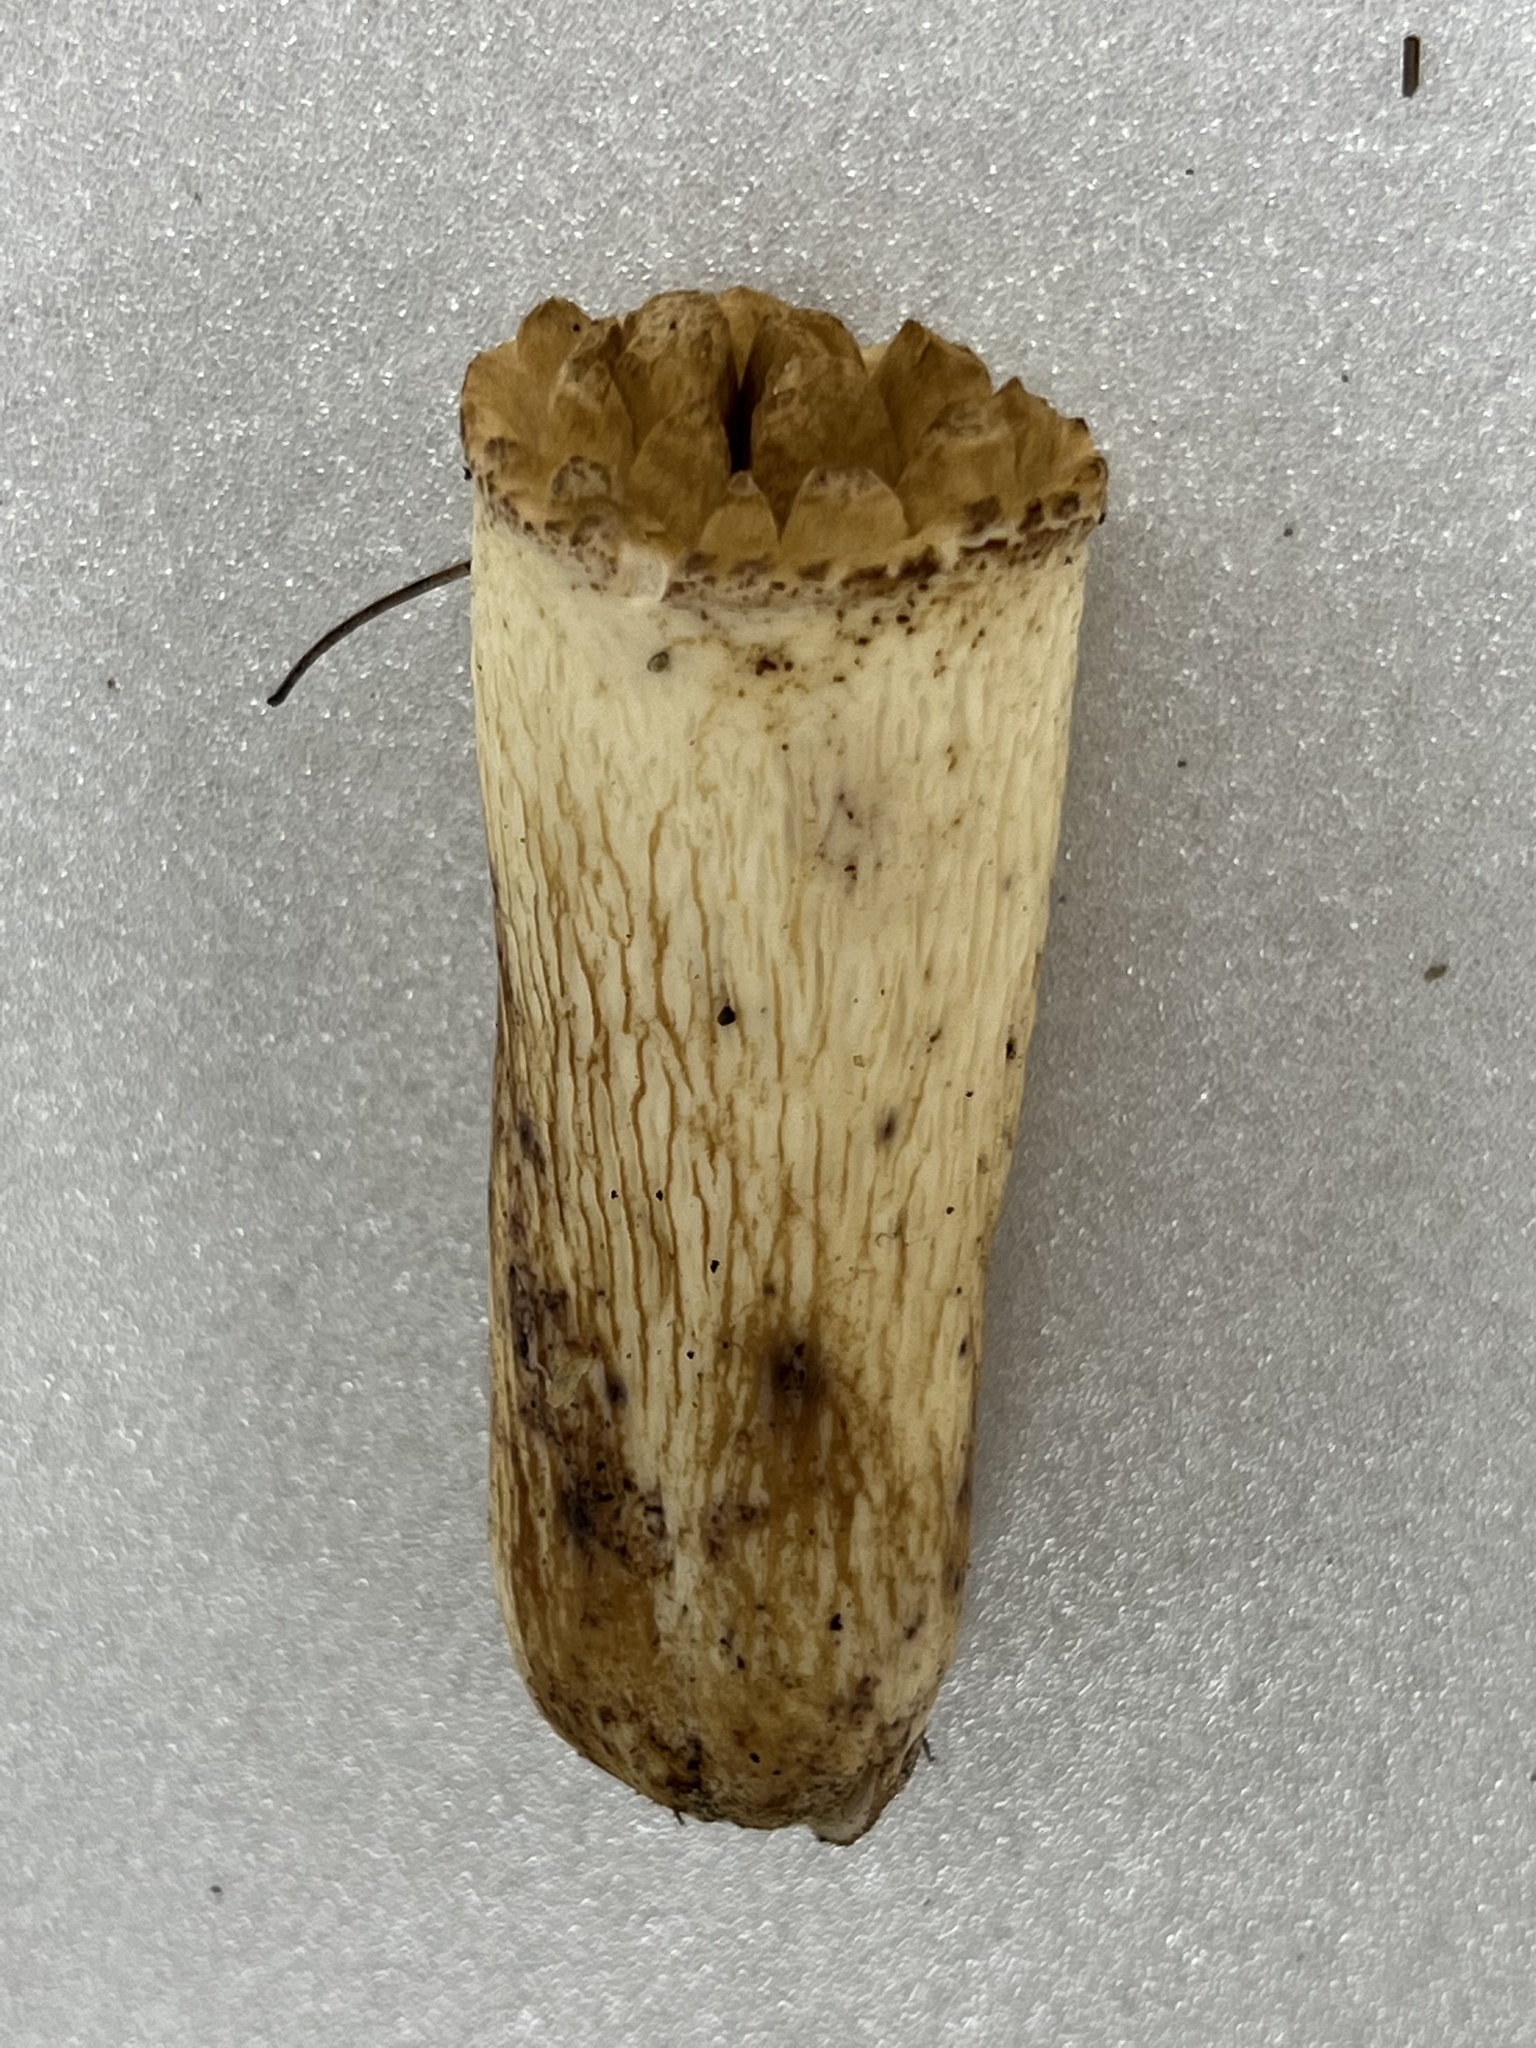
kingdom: Fungi
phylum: Basidiomycota
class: Agaricomycetes
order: Gomphales
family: Gomphaceae
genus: Turbinellus
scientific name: Turbinellus kauffmanii
